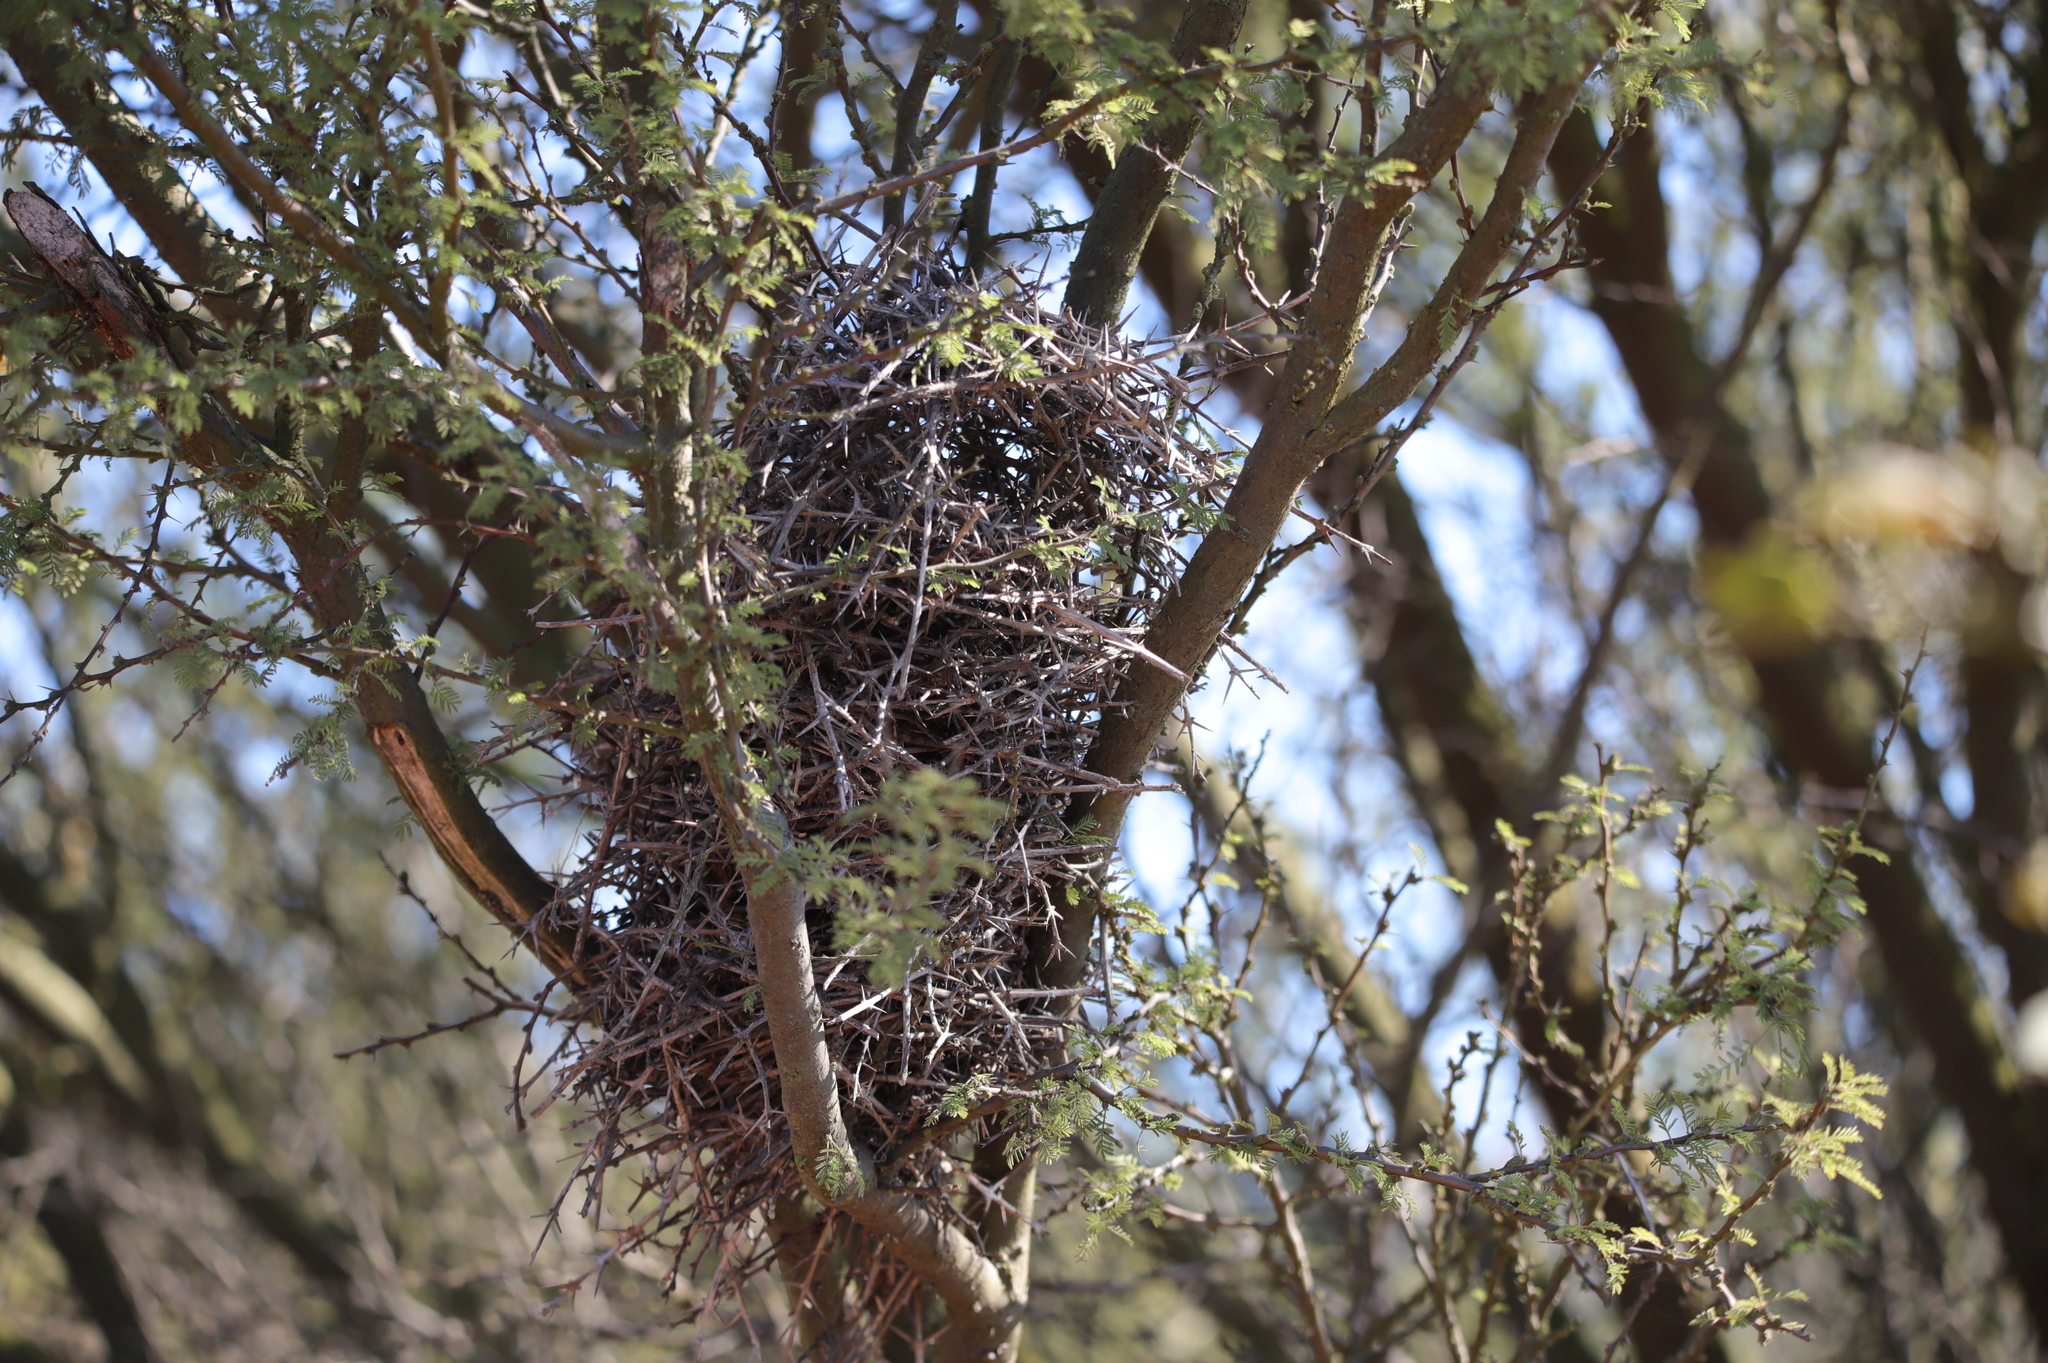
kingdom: Animalia
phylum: Chordata
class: Aves
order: Passeriformes
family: Furnariidae
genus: Asthenes
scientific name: Asthenes humicola
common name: Dusky-tailed canastero
